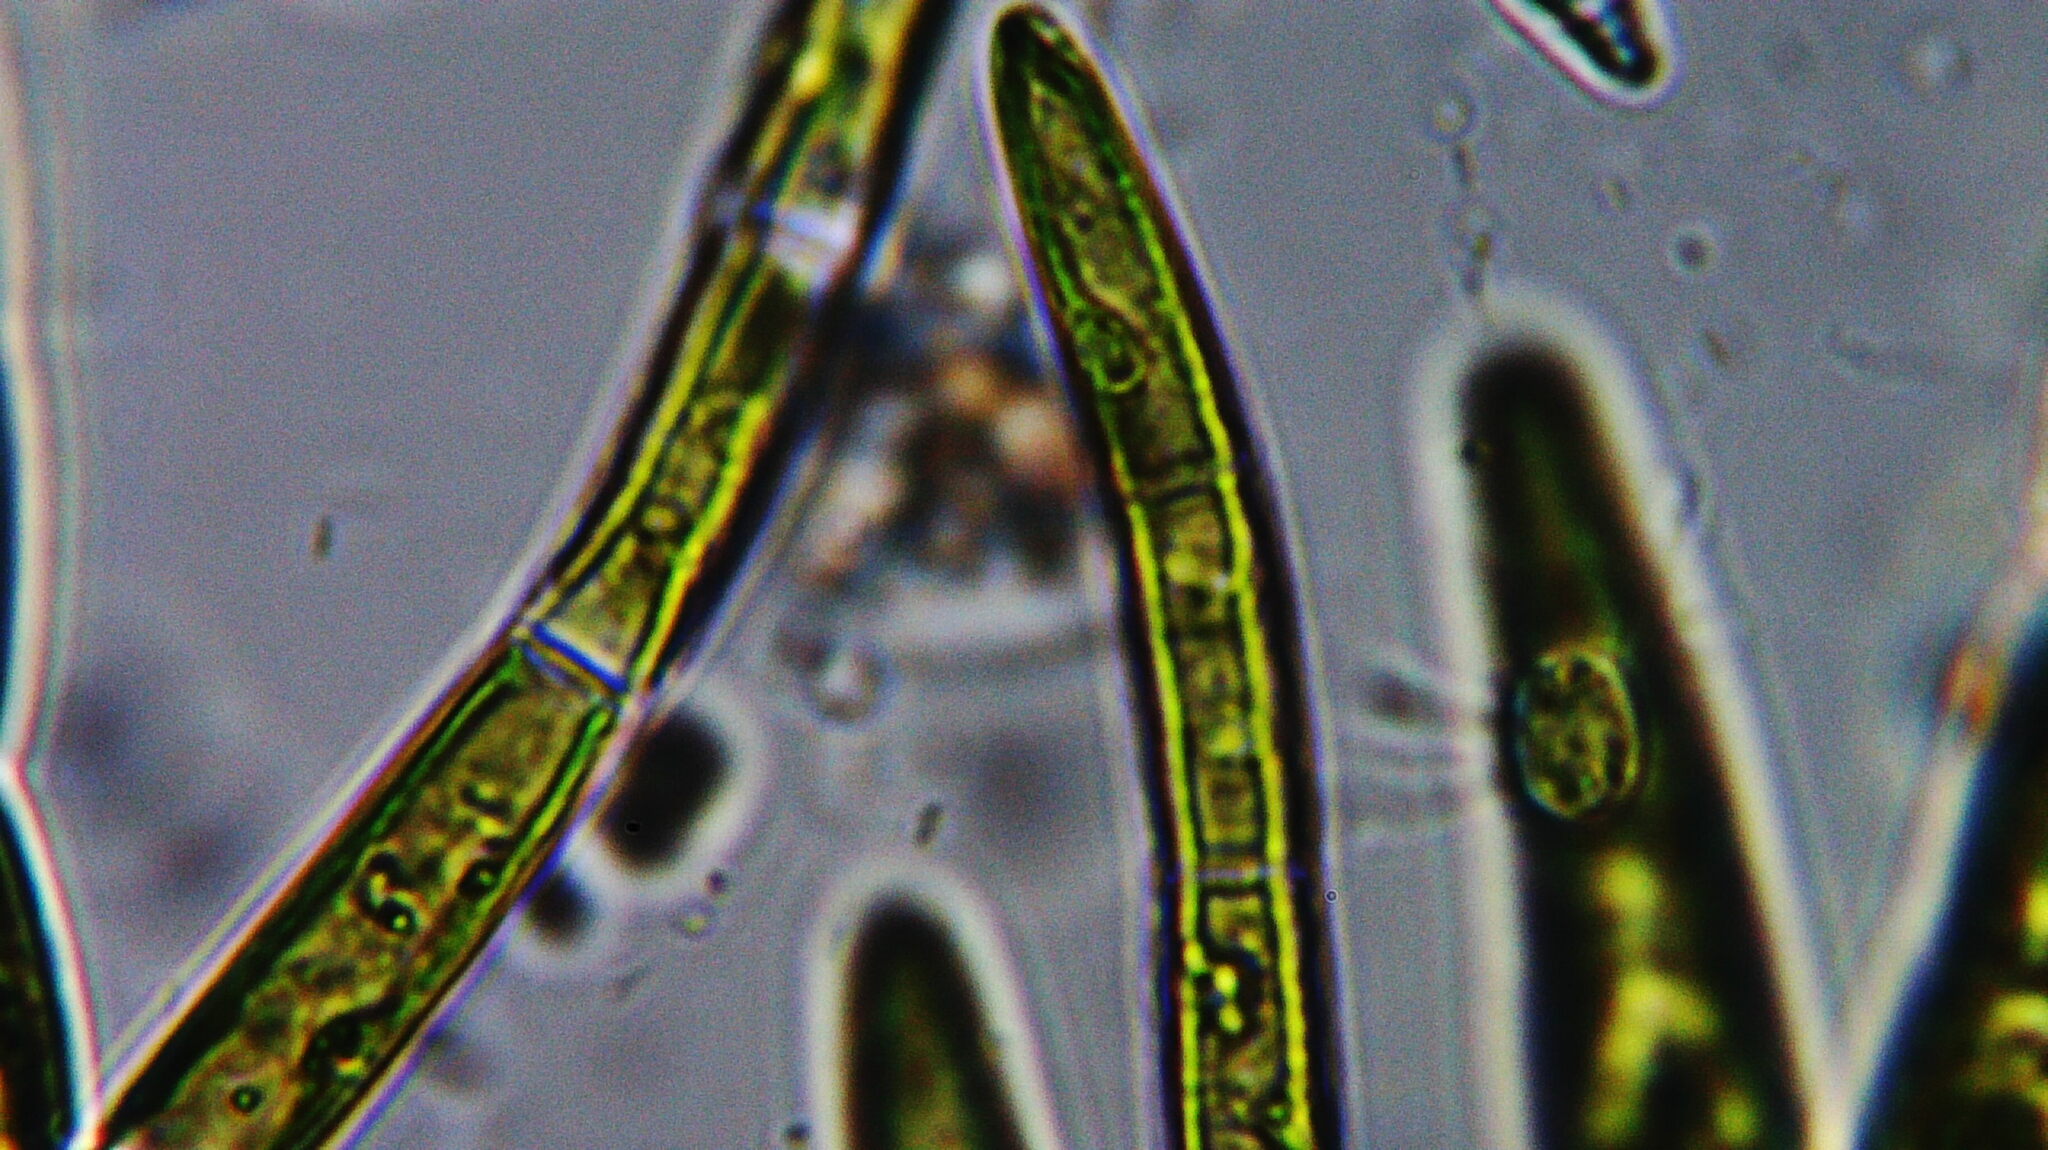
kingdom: Plantae
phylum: Chlorophyta
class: Chlorophyceae
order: Chaetophorales
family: Chaetophoraceae
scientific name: Chaetophoraceae
